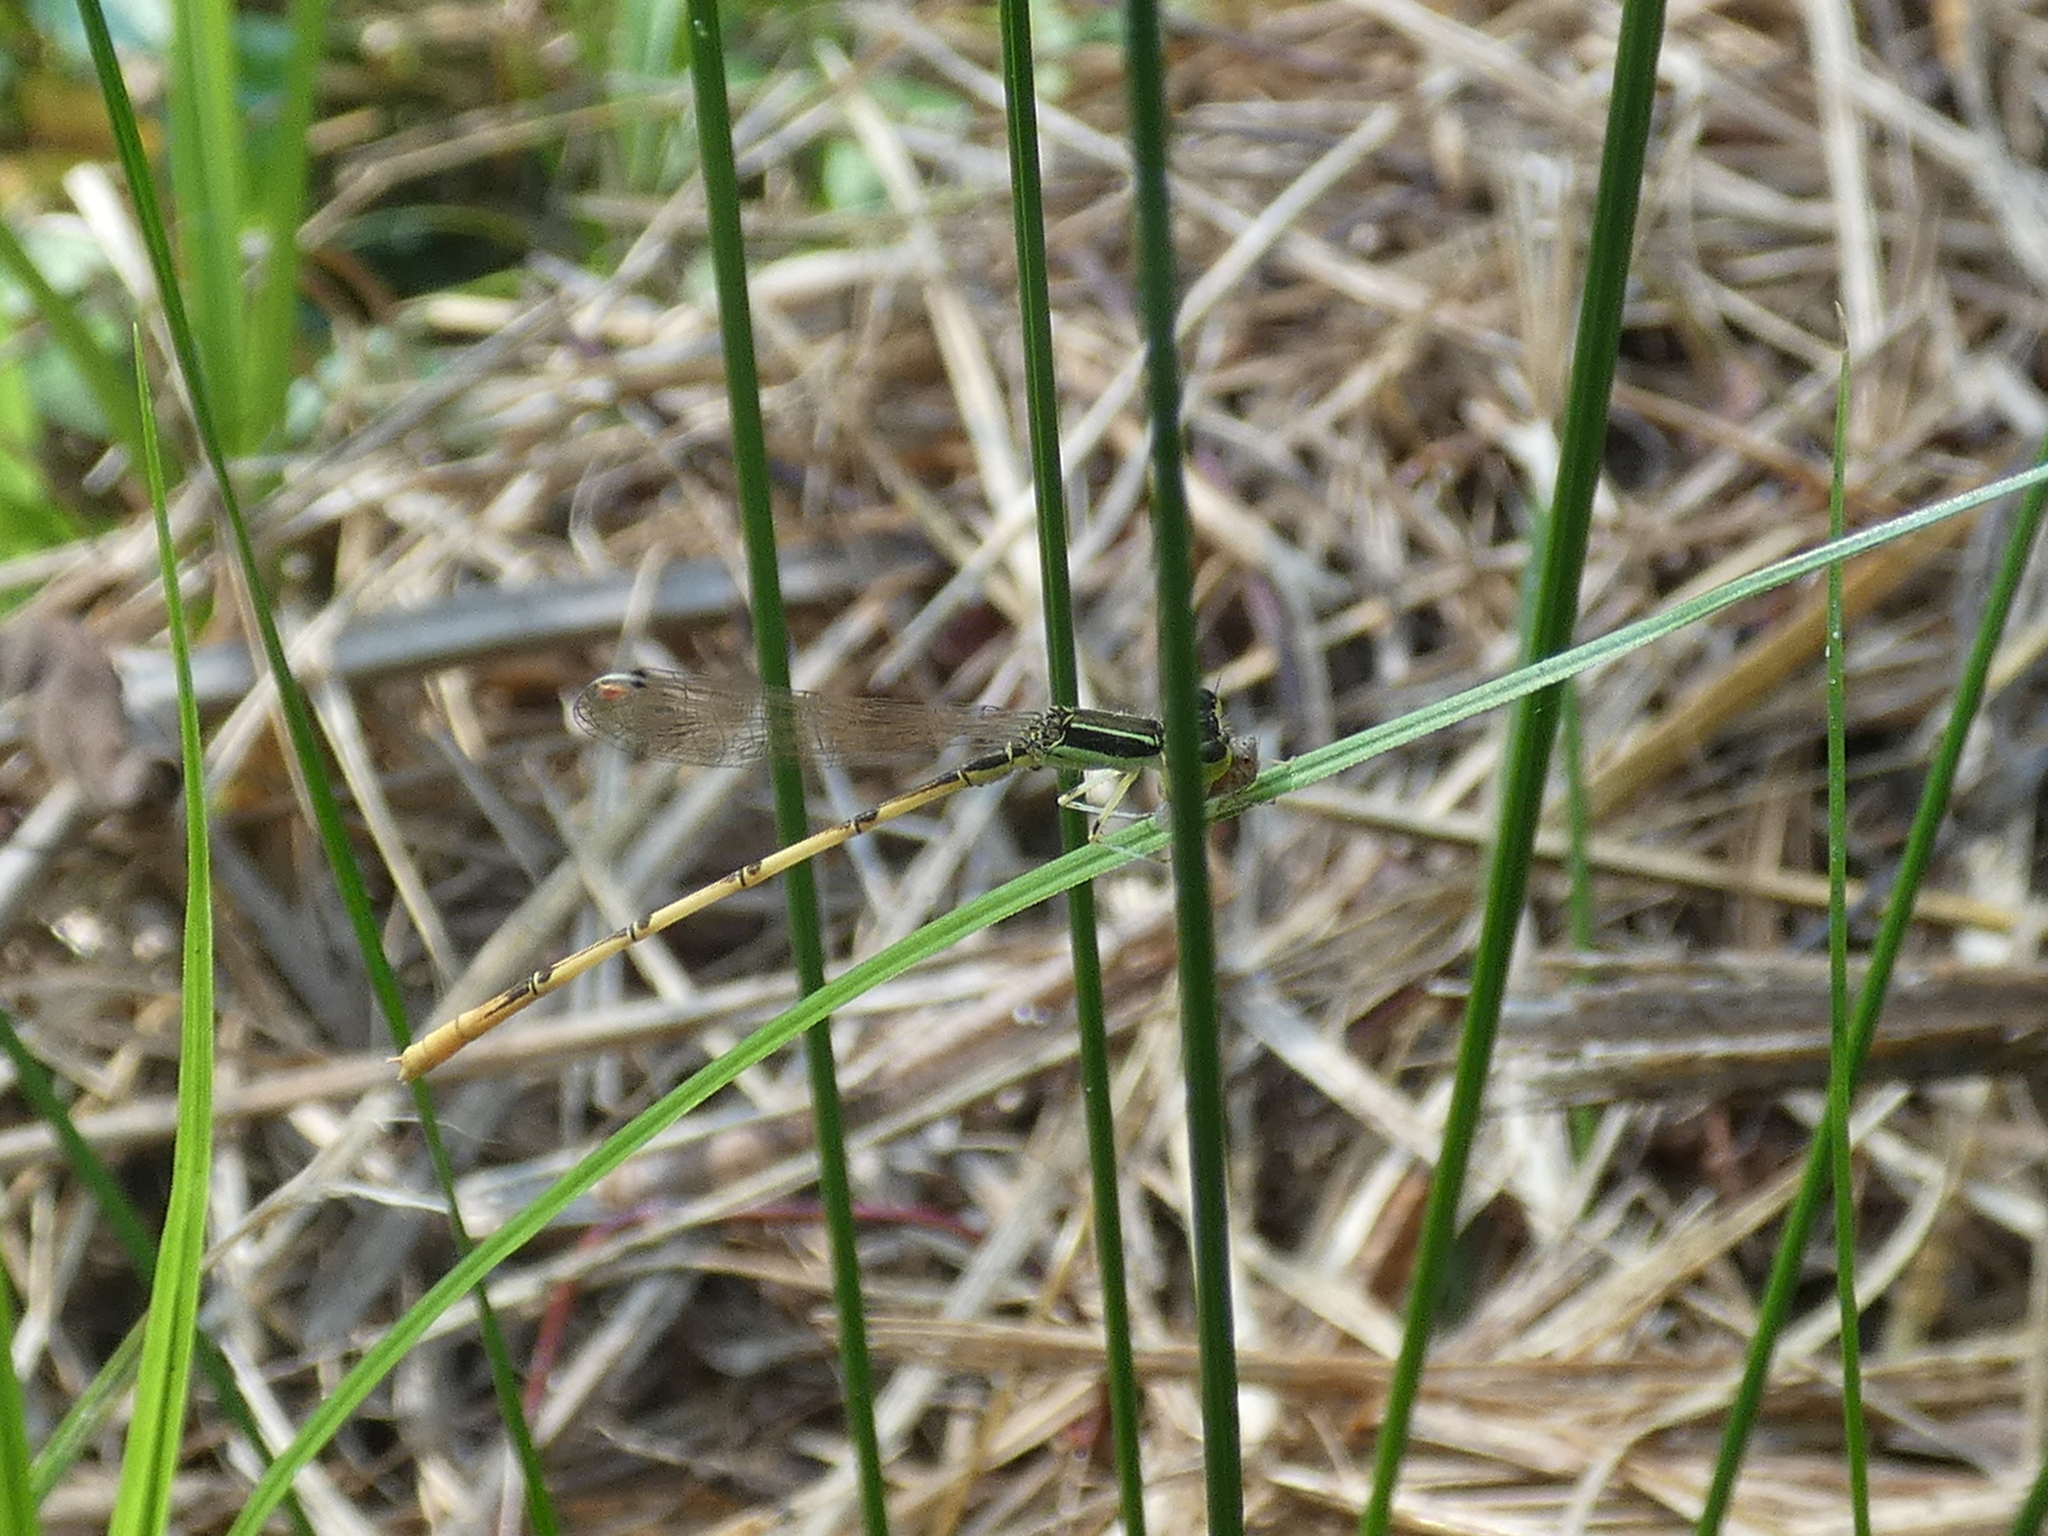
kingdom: Animalia
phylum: Arthropoda
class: Insecta
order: Odonata
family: Coenagrionidae
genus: Ischnura
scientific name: Ischnura hastata
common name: Citrine forktail
